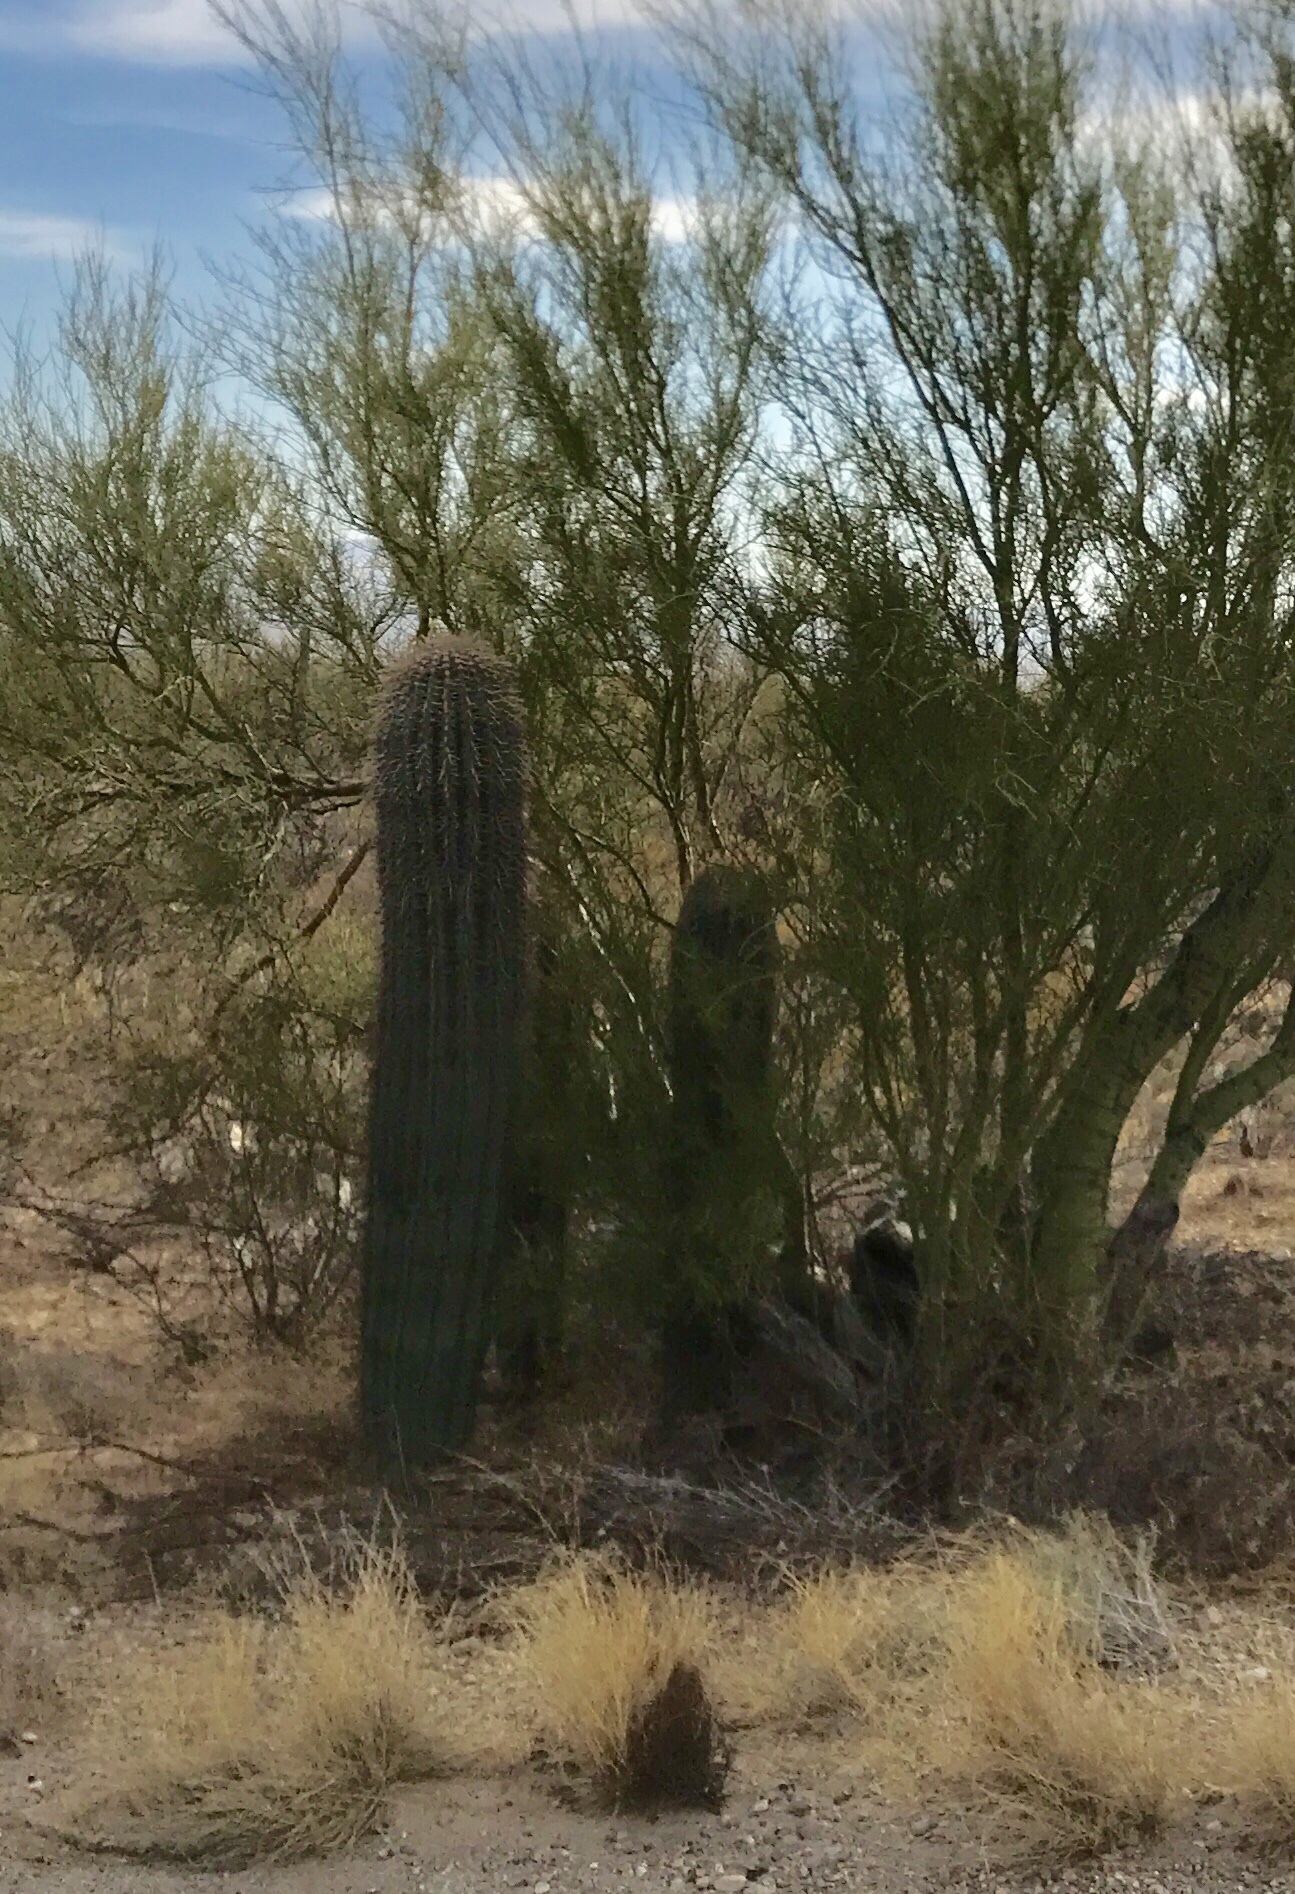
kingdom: Plantae
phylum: Tracheophyta
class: Magnoliopsida
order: Caryophyllales
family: Cactaceae
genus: Carnegiea
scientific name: Carnegiea gigantea
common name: Saguaro
